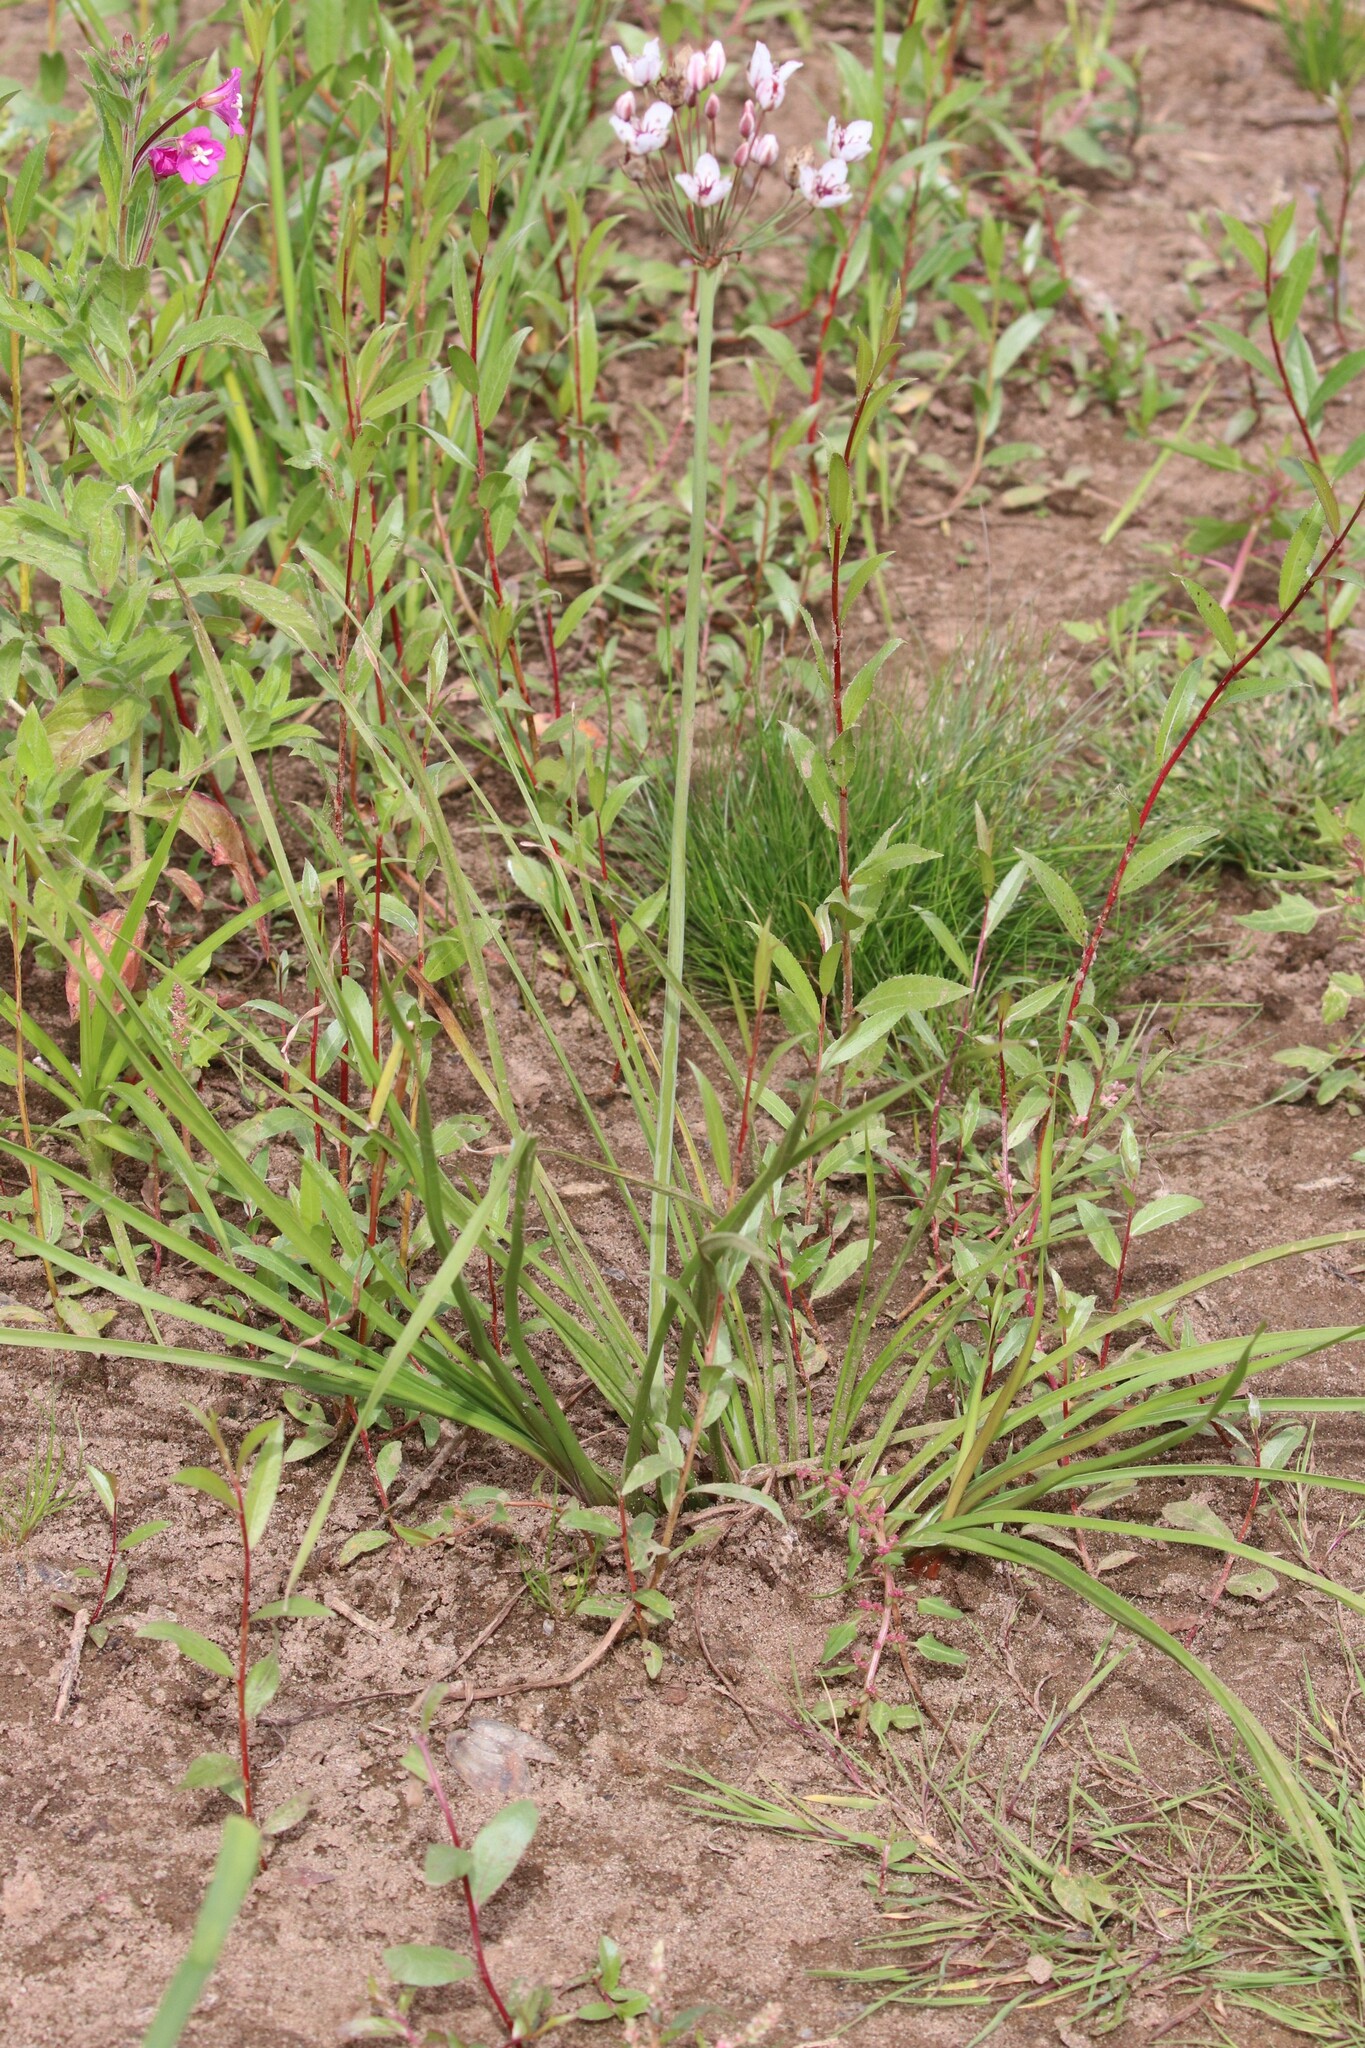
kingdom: Plantae
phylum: Tracheophyta
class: Liliopsida
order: Alismatales
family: Butomaceae
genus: Butomus
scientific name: Butomus umbellatus
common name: Flowering-rush
